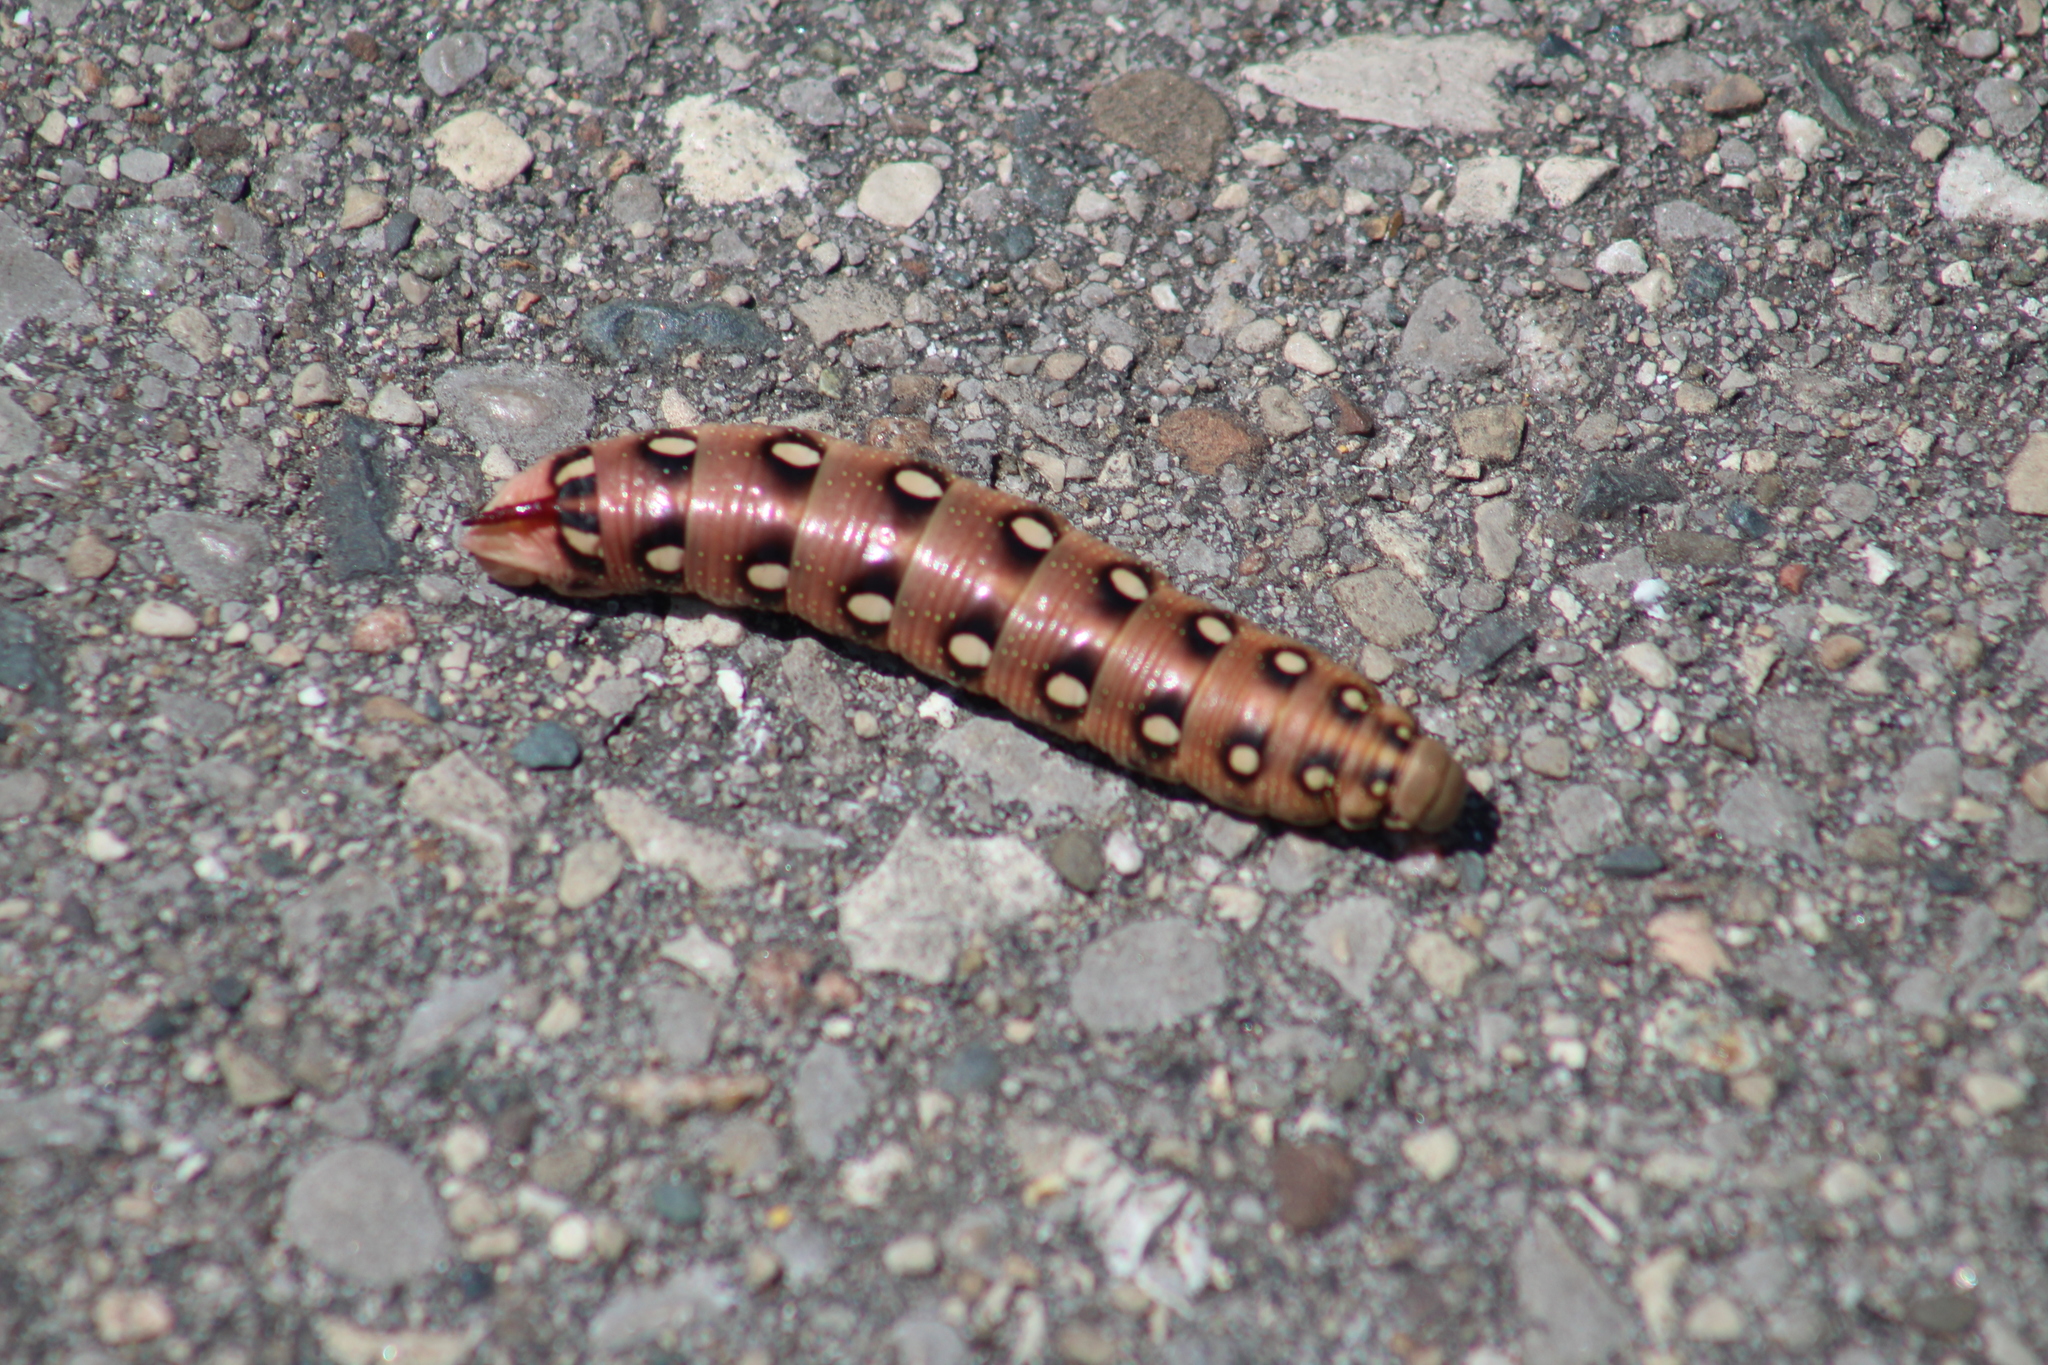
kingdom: Animalia
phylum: Arthropoda
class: Insecta
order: Lepidoptera
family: Sphingidae
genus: Hyles
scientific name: Hyles gallii
